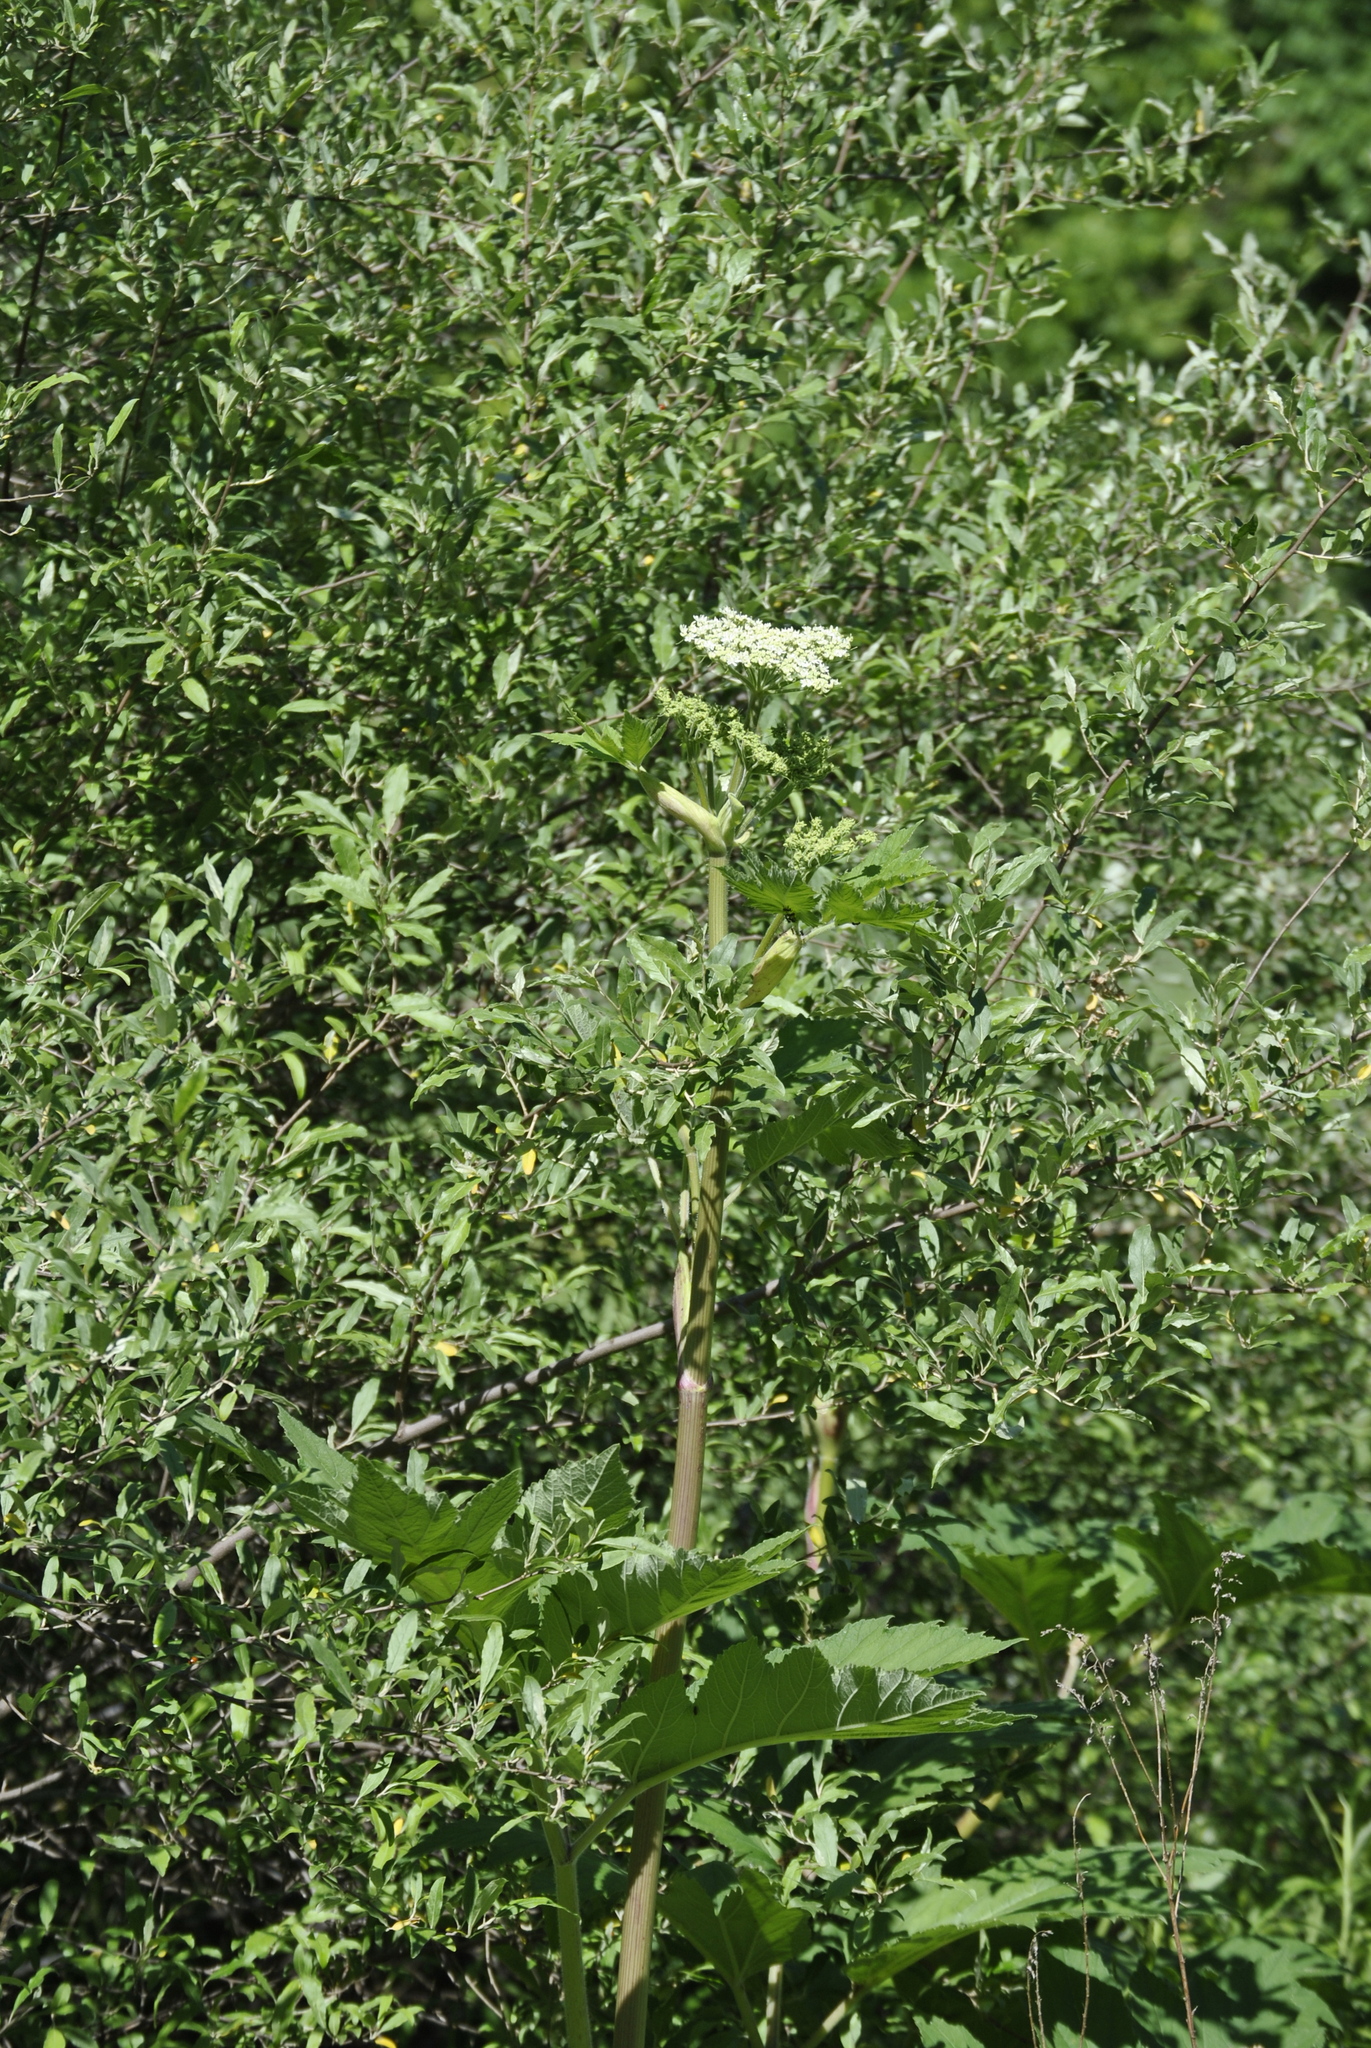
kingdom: Plantae
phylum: Tracheophyta
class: Magnoliopsida
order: Apiales
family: Apiaceae
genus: Heracleum
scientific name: Heracleum maximum
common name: American cow parsnip
